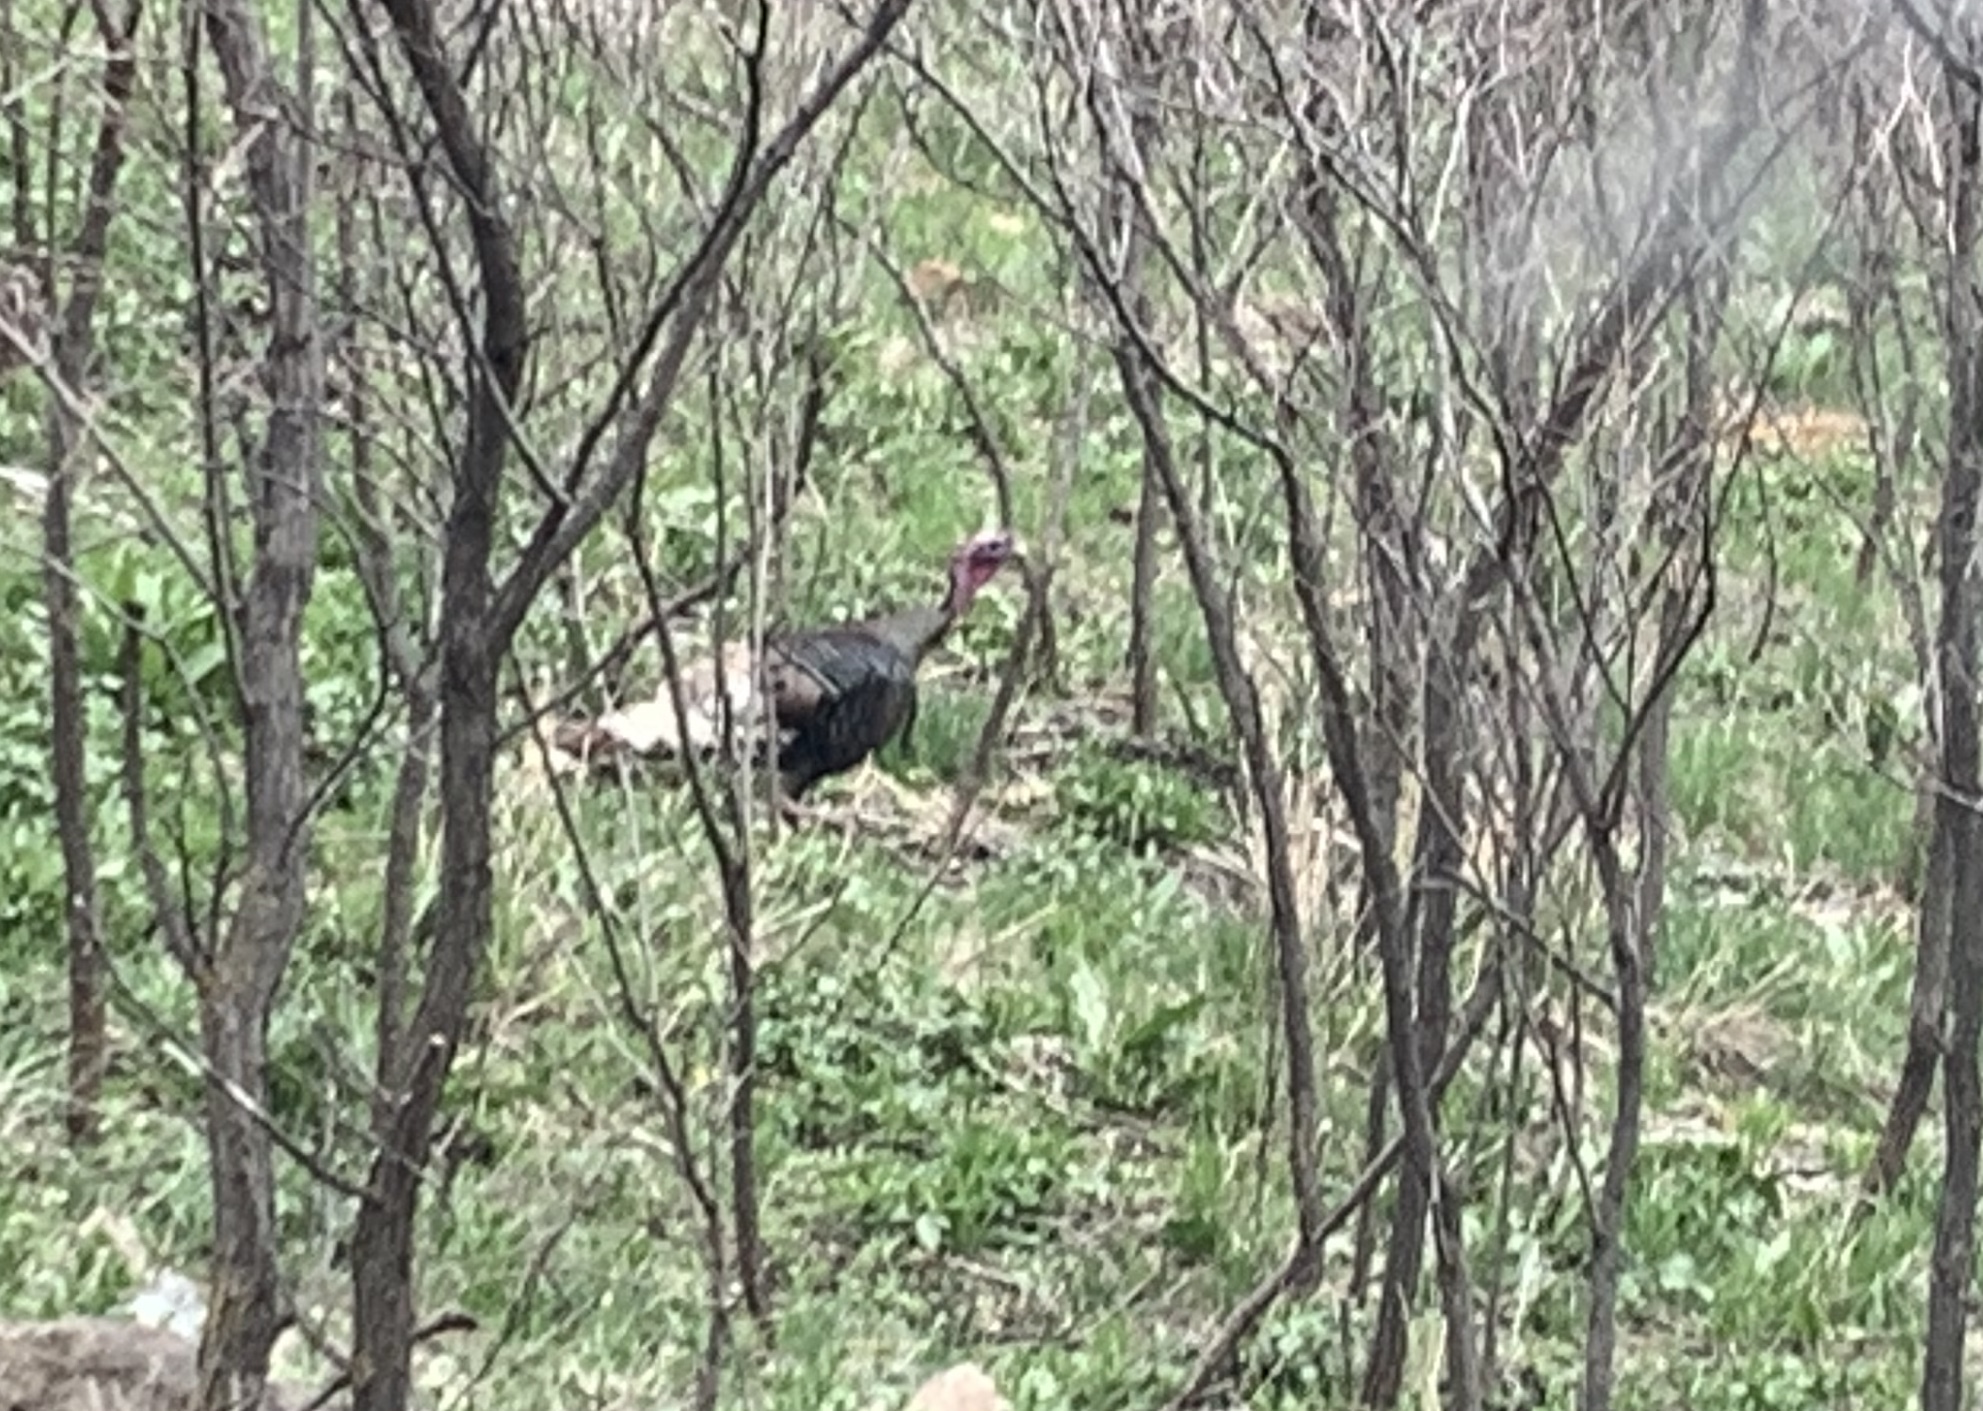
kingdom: Animalia
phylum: Chordata
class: Aves
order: Galliformes
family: Phasianidae
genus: Meleagris
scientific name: Meleagris gallopavo
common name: Wild turkey
